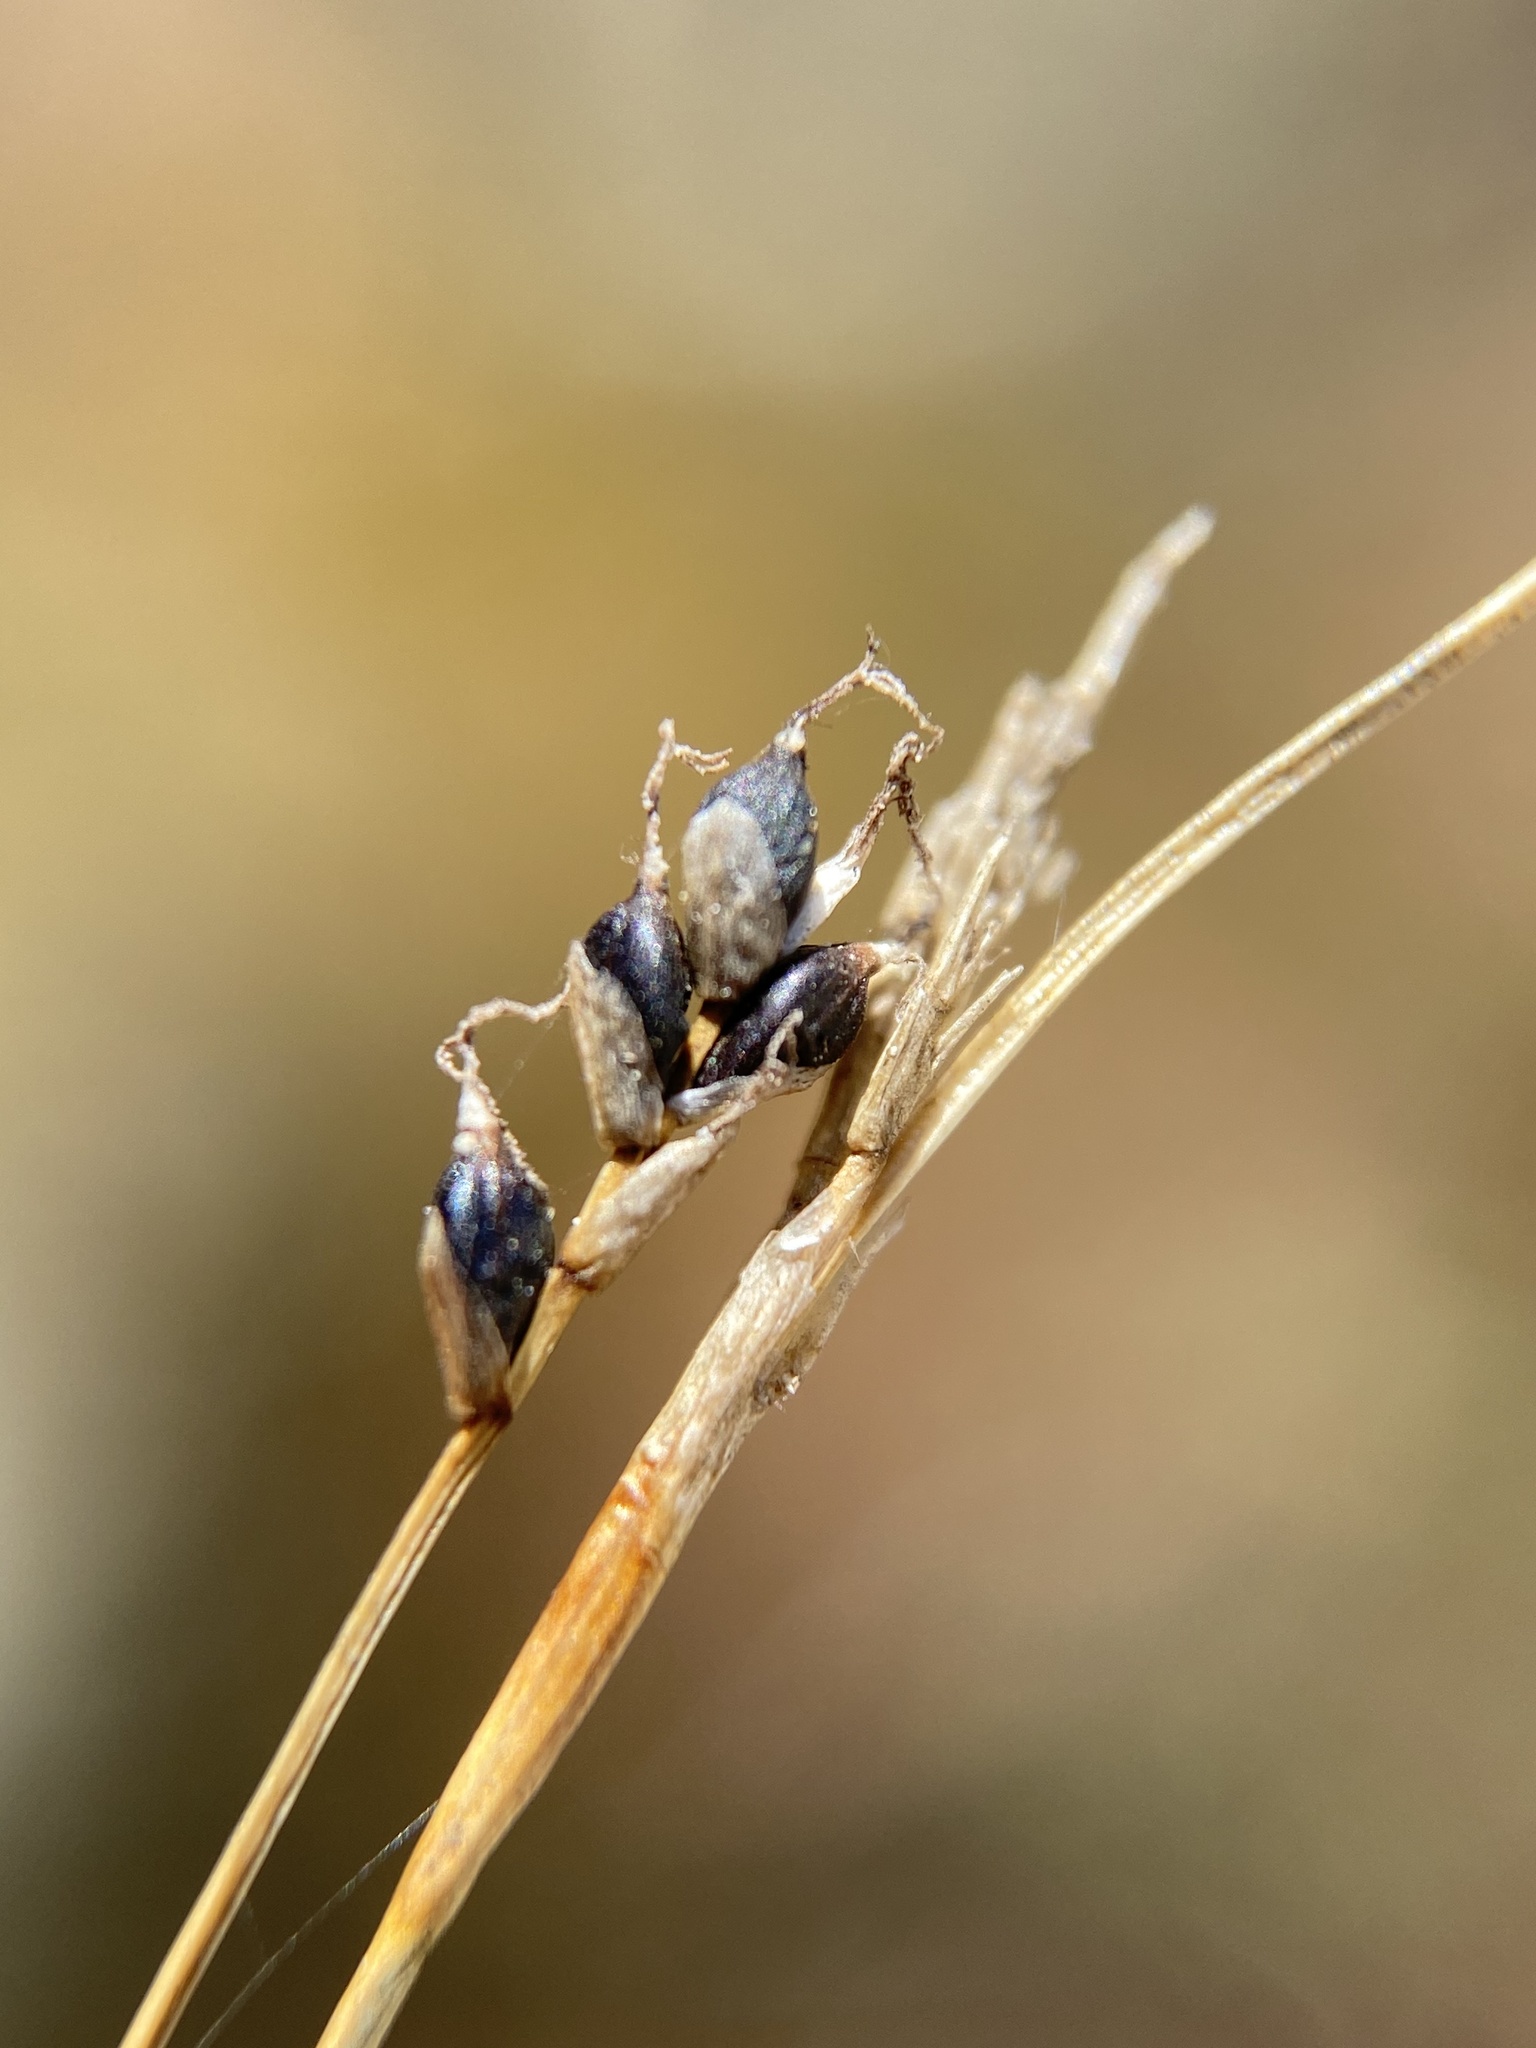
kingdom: Plantae
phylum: Tracheophyta
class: Liliopsida
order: Poales
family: Cyperaceae
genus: Carex
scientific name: Carex eburnea
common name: Bristle-leaved sedge
